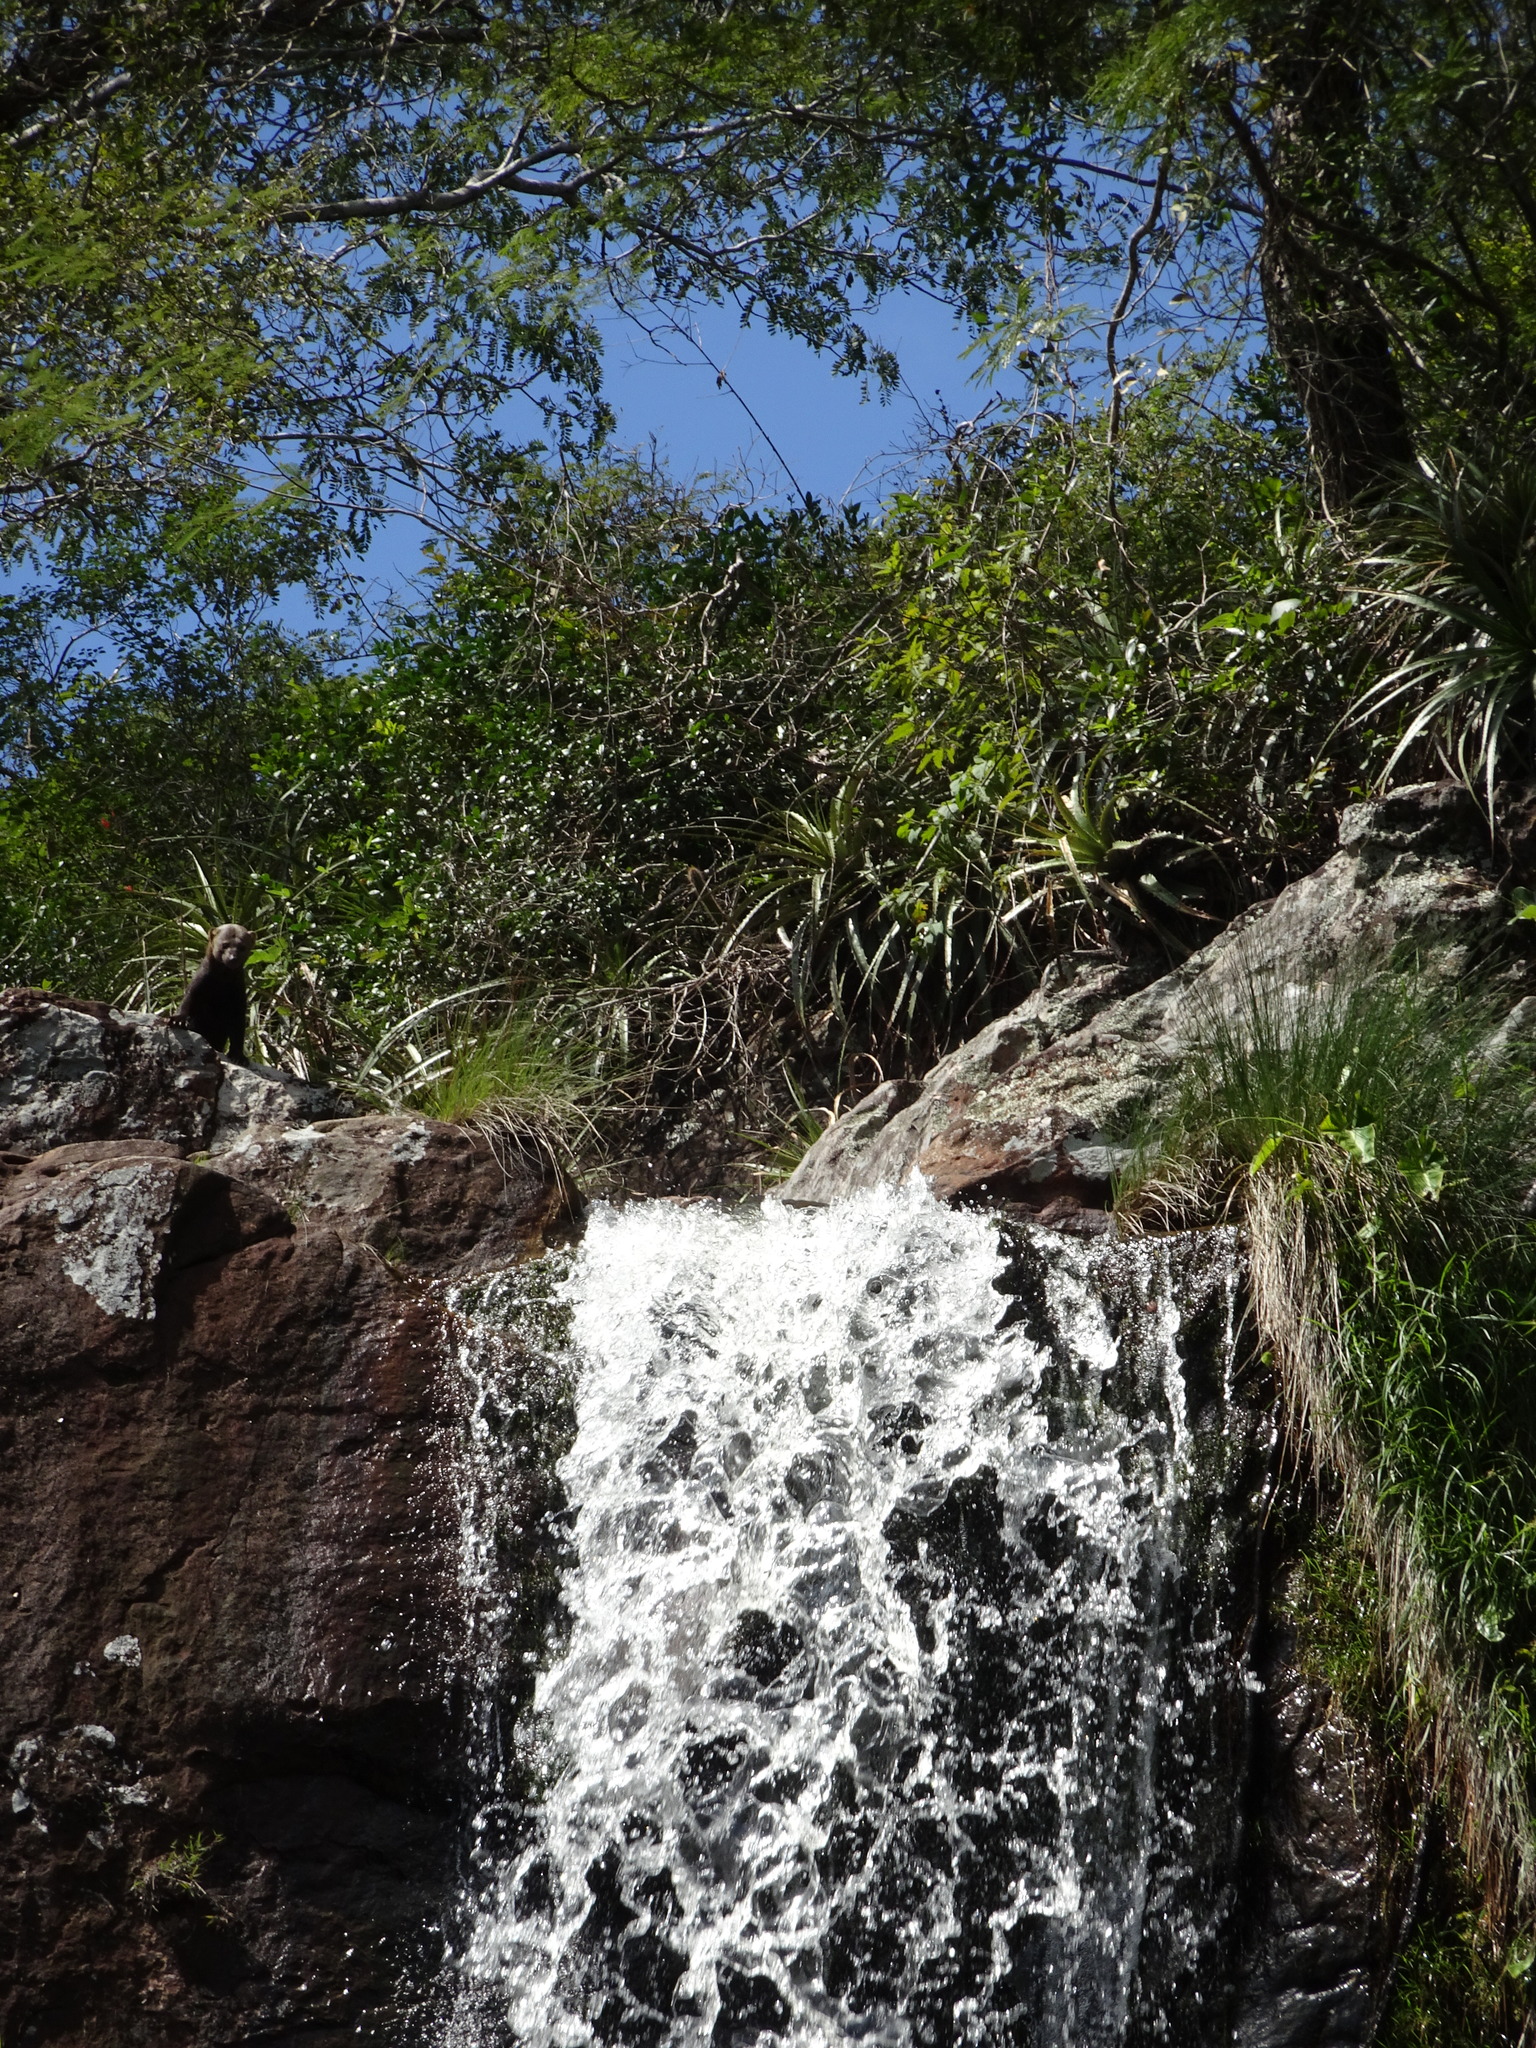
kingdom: Animalia
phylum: Chordata
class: Mammalia
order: Carnivora
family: Mustelidae
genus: Eira
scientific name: Eira barbara
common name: Tayra
